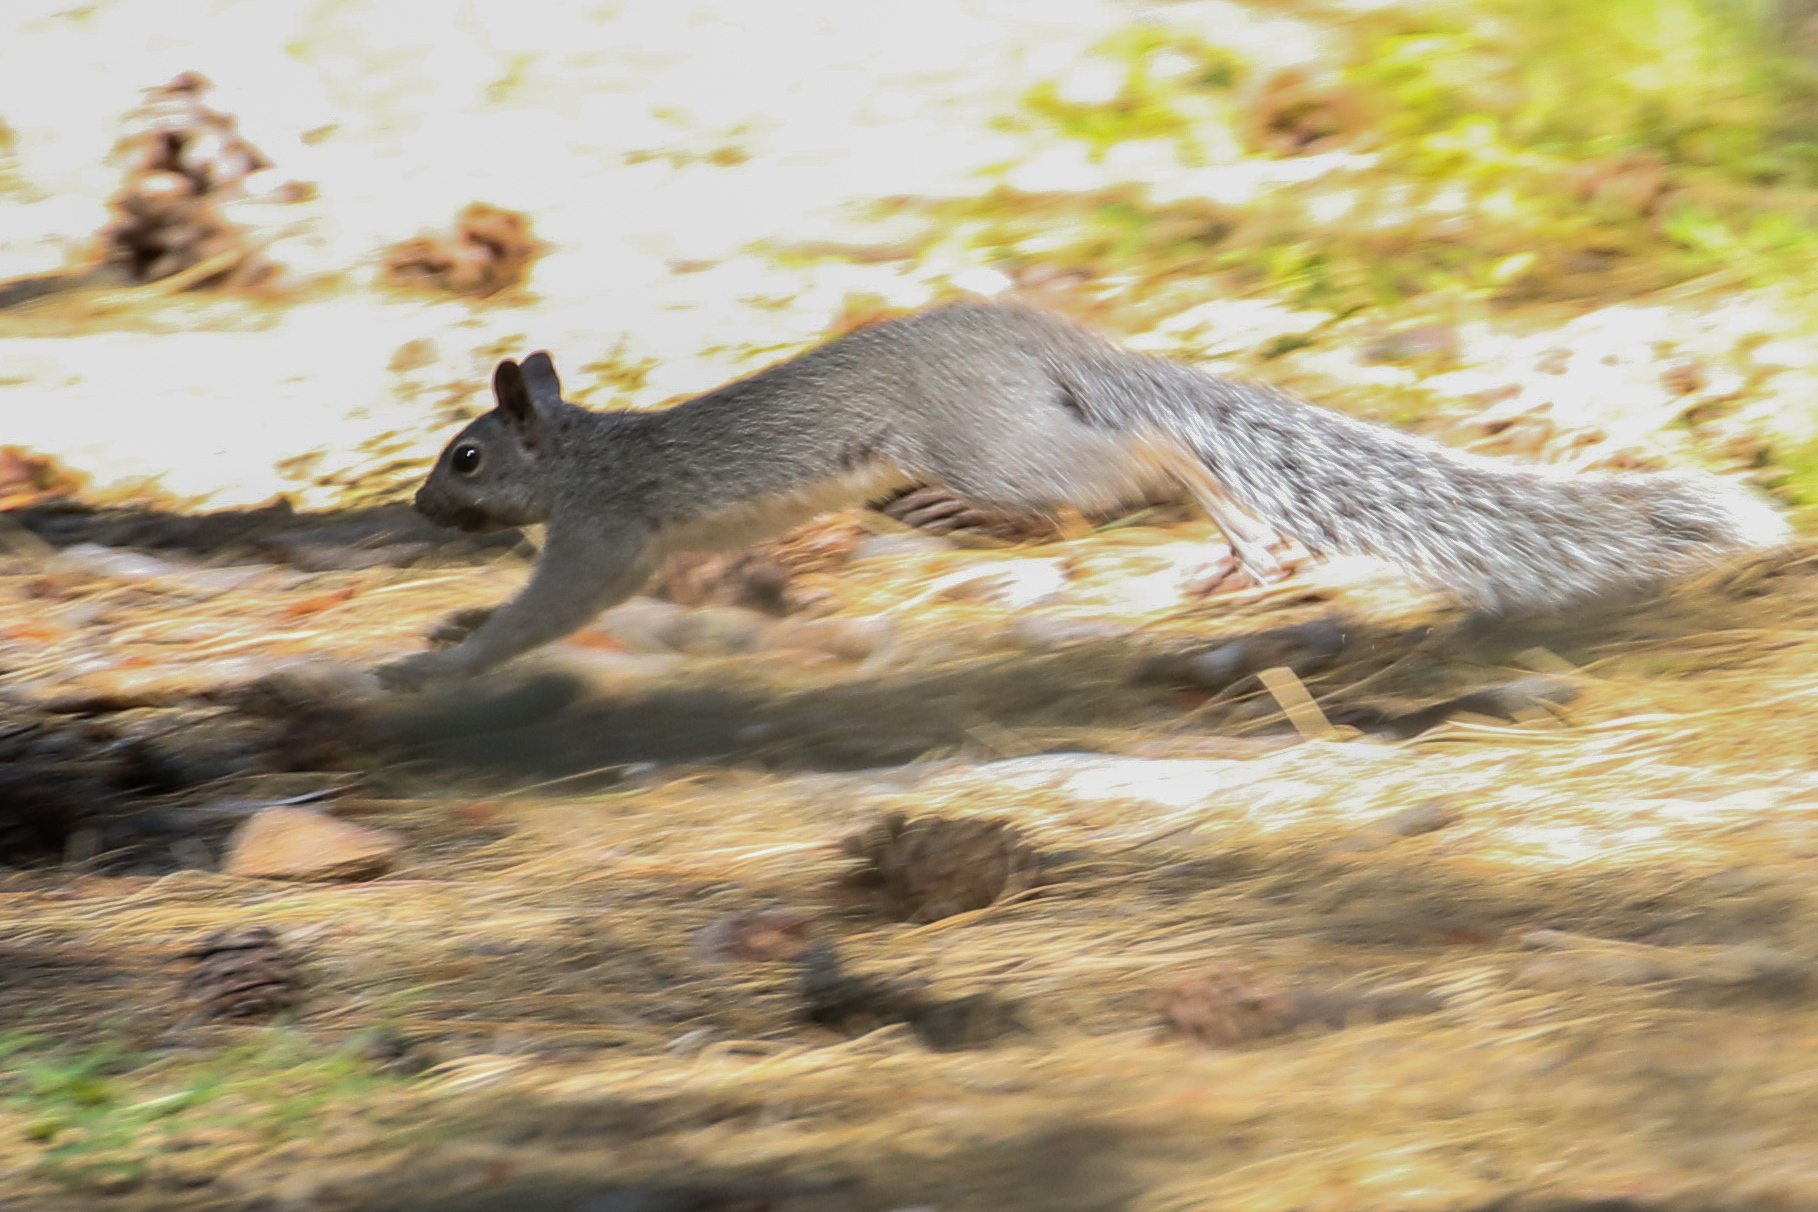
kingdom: Animalia
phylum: Chordata
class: Mammalia
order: Rodentia
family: Sciuridae
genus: Sciurus
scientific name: Sciurus griseus
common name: Western gray squirrel
